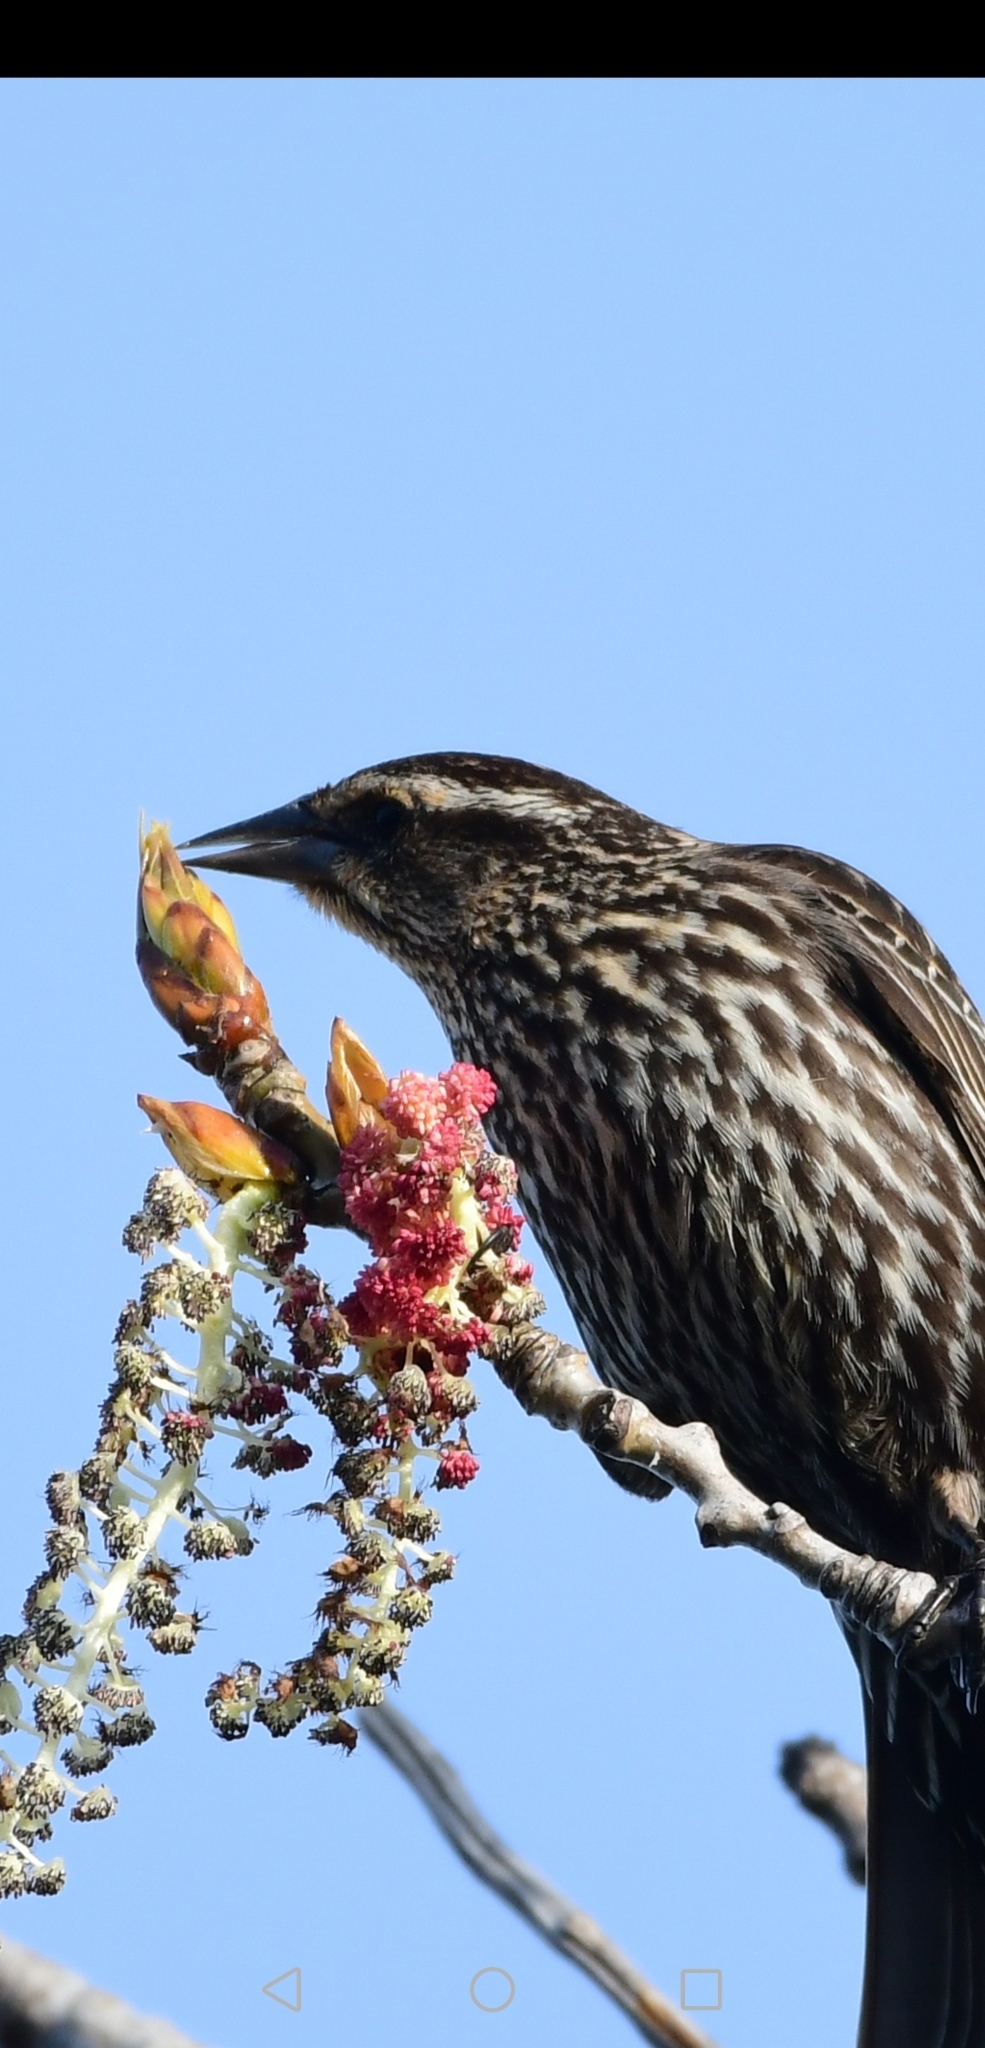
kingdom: Animalia
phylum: Chordata
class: Aves
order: Passeriformes
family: Icteridae
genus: Agelaius
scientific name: Agelaius phoeniceus
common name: Red-winged blackbird
